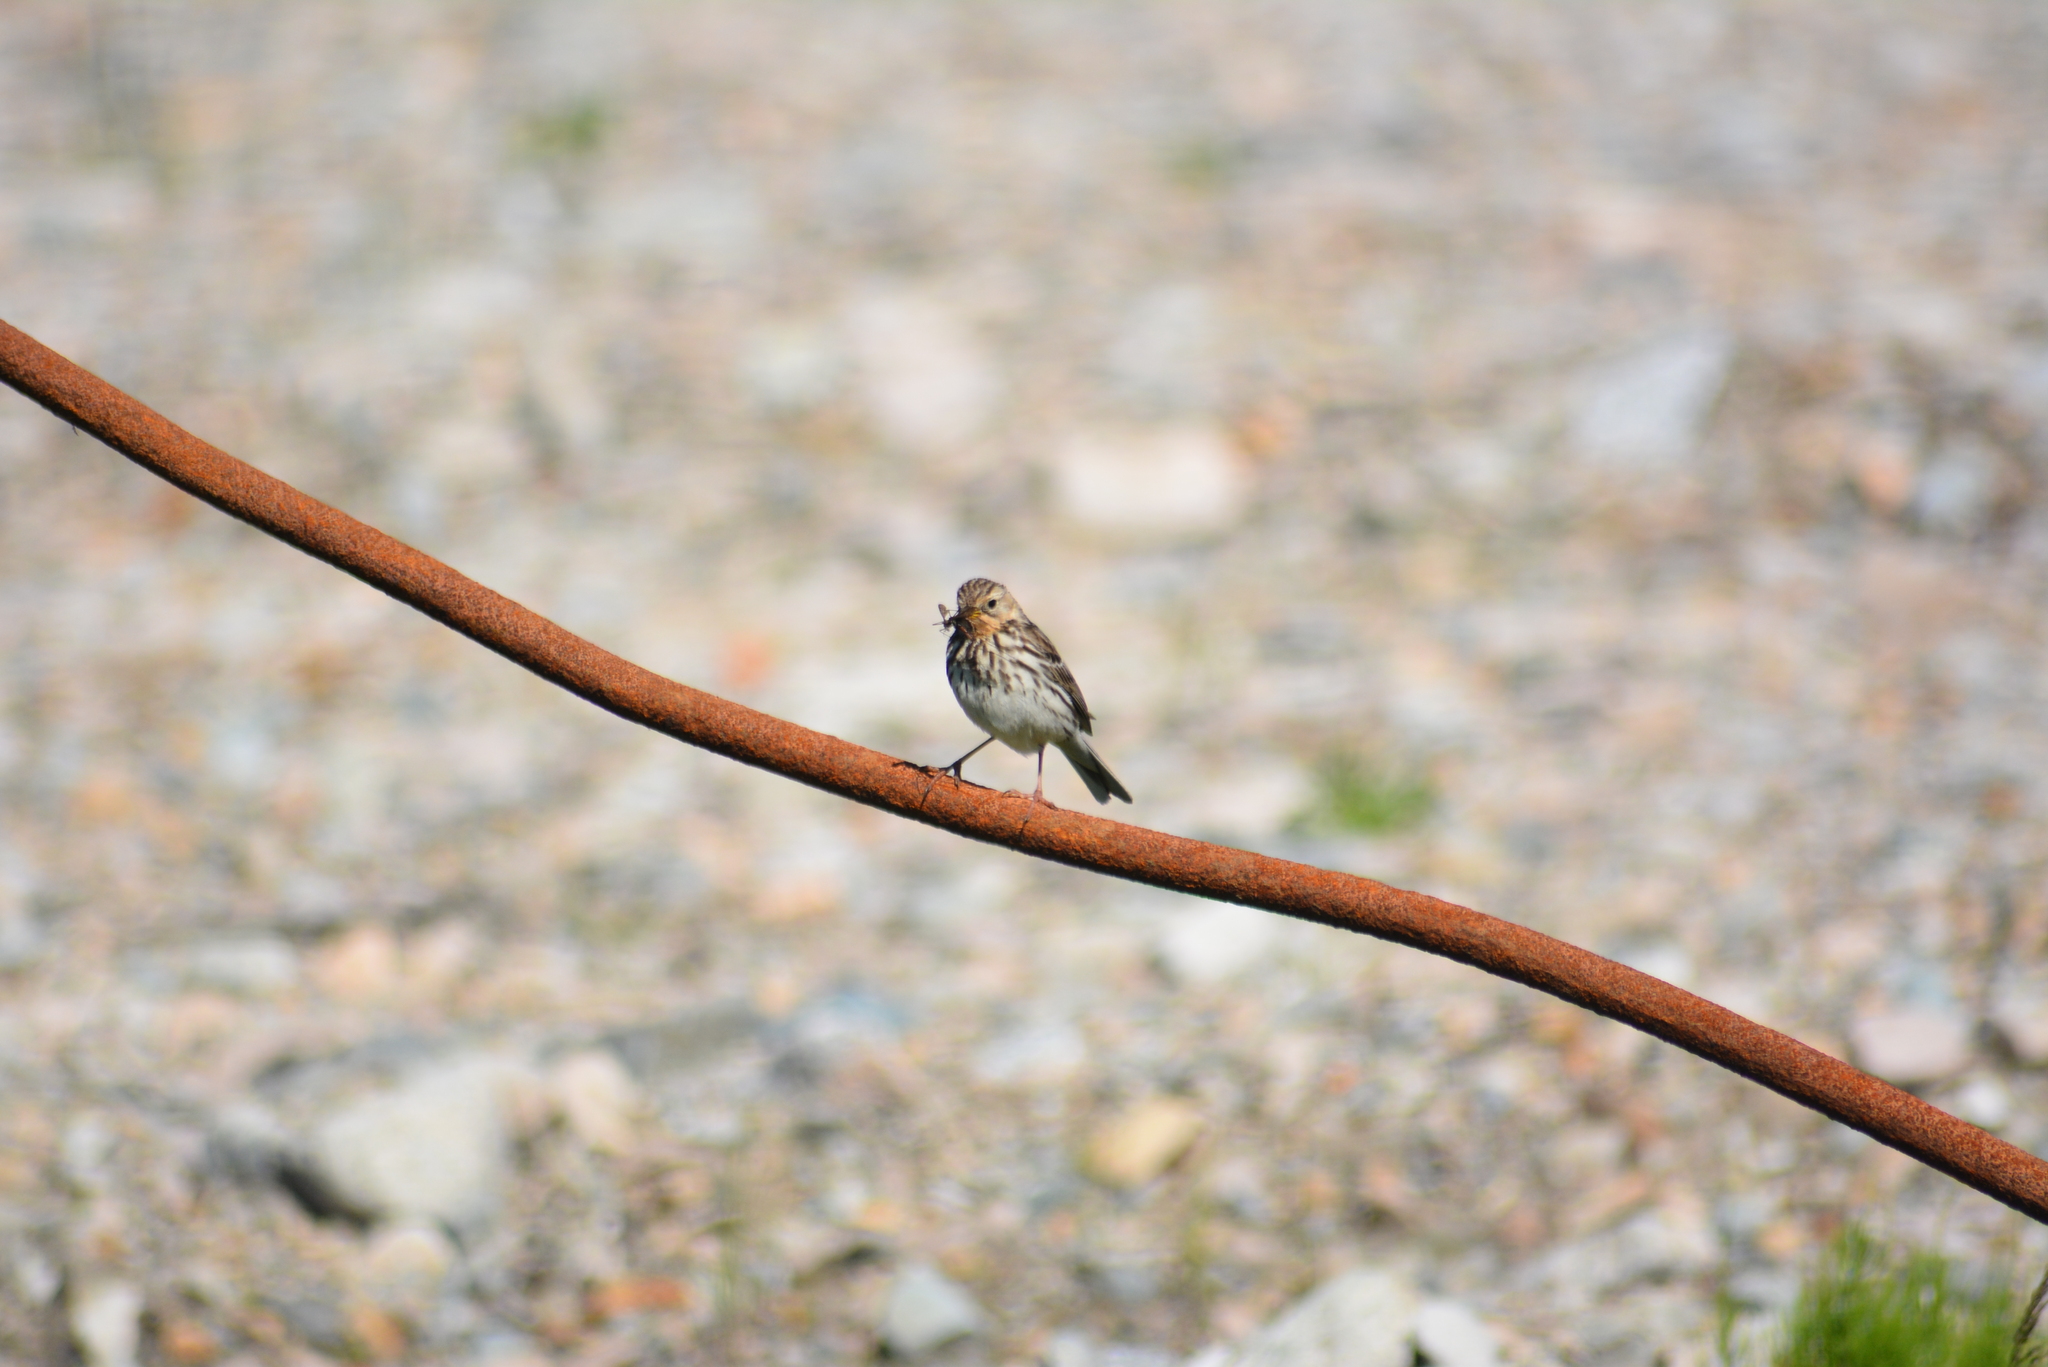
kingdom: Animalia
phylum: Chordata
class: Aves
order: Passeriformes
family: Motacillidae
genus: Anthus
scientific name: Anthus cervinus
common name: Red-throated pipit
